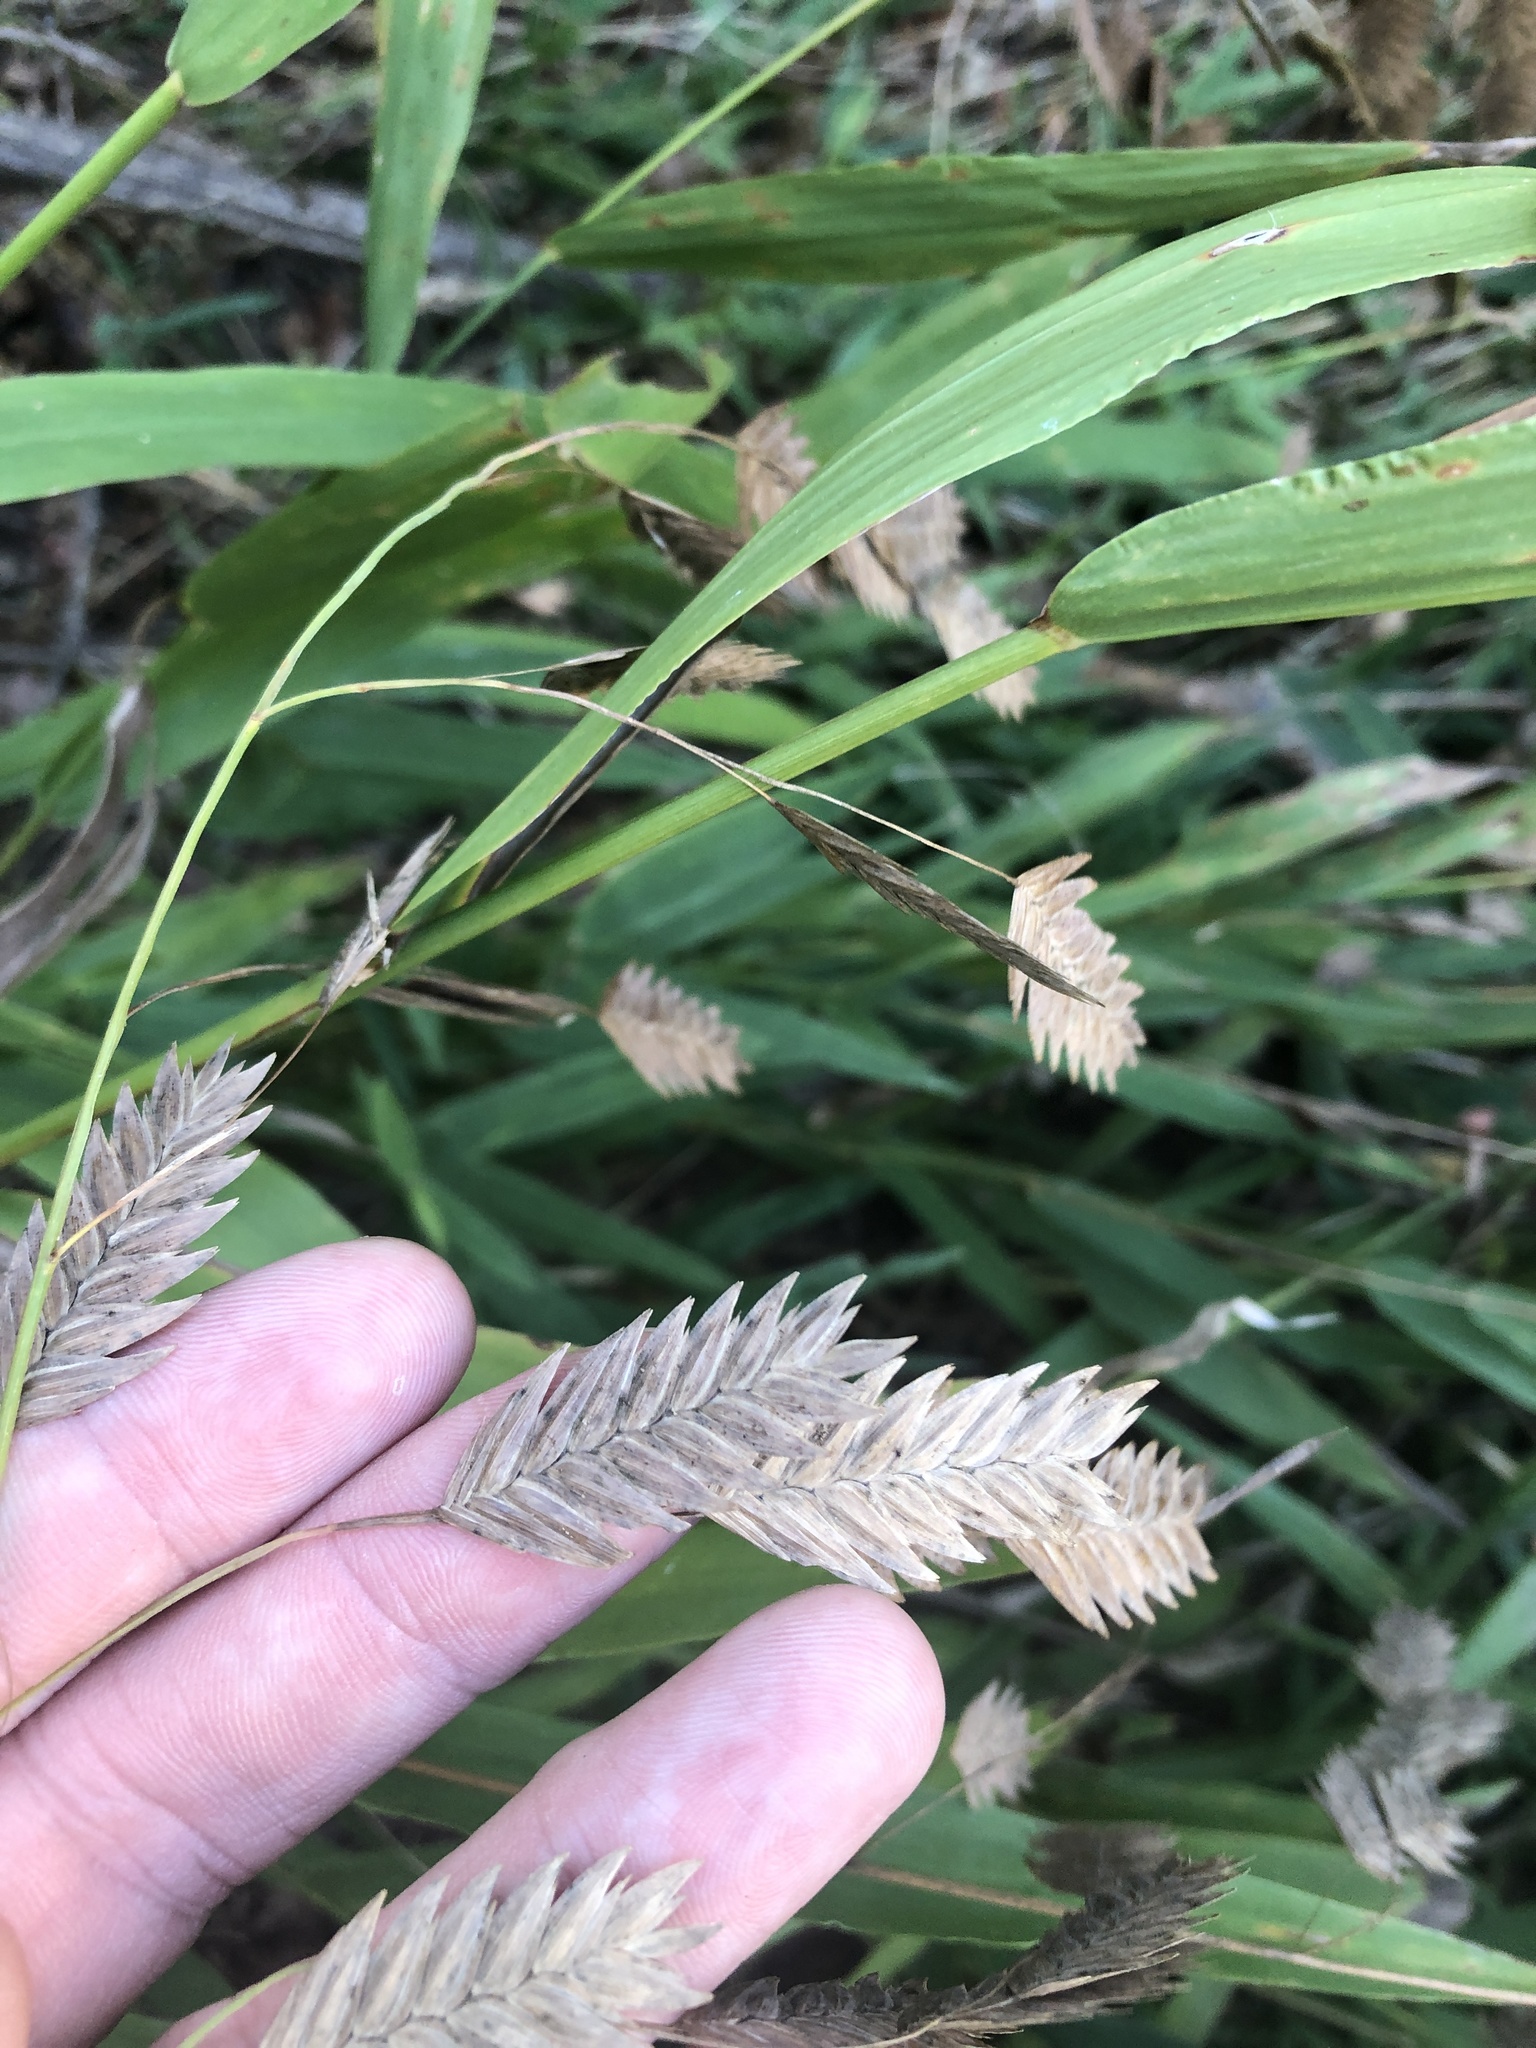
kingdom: Plantae
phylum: Tracheophyta
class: Liliopsida
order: Poales
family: Poaceae
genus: Chasmanthium
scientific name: Chasmanthium latifolium
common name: Broad-leaved chasmanthium
